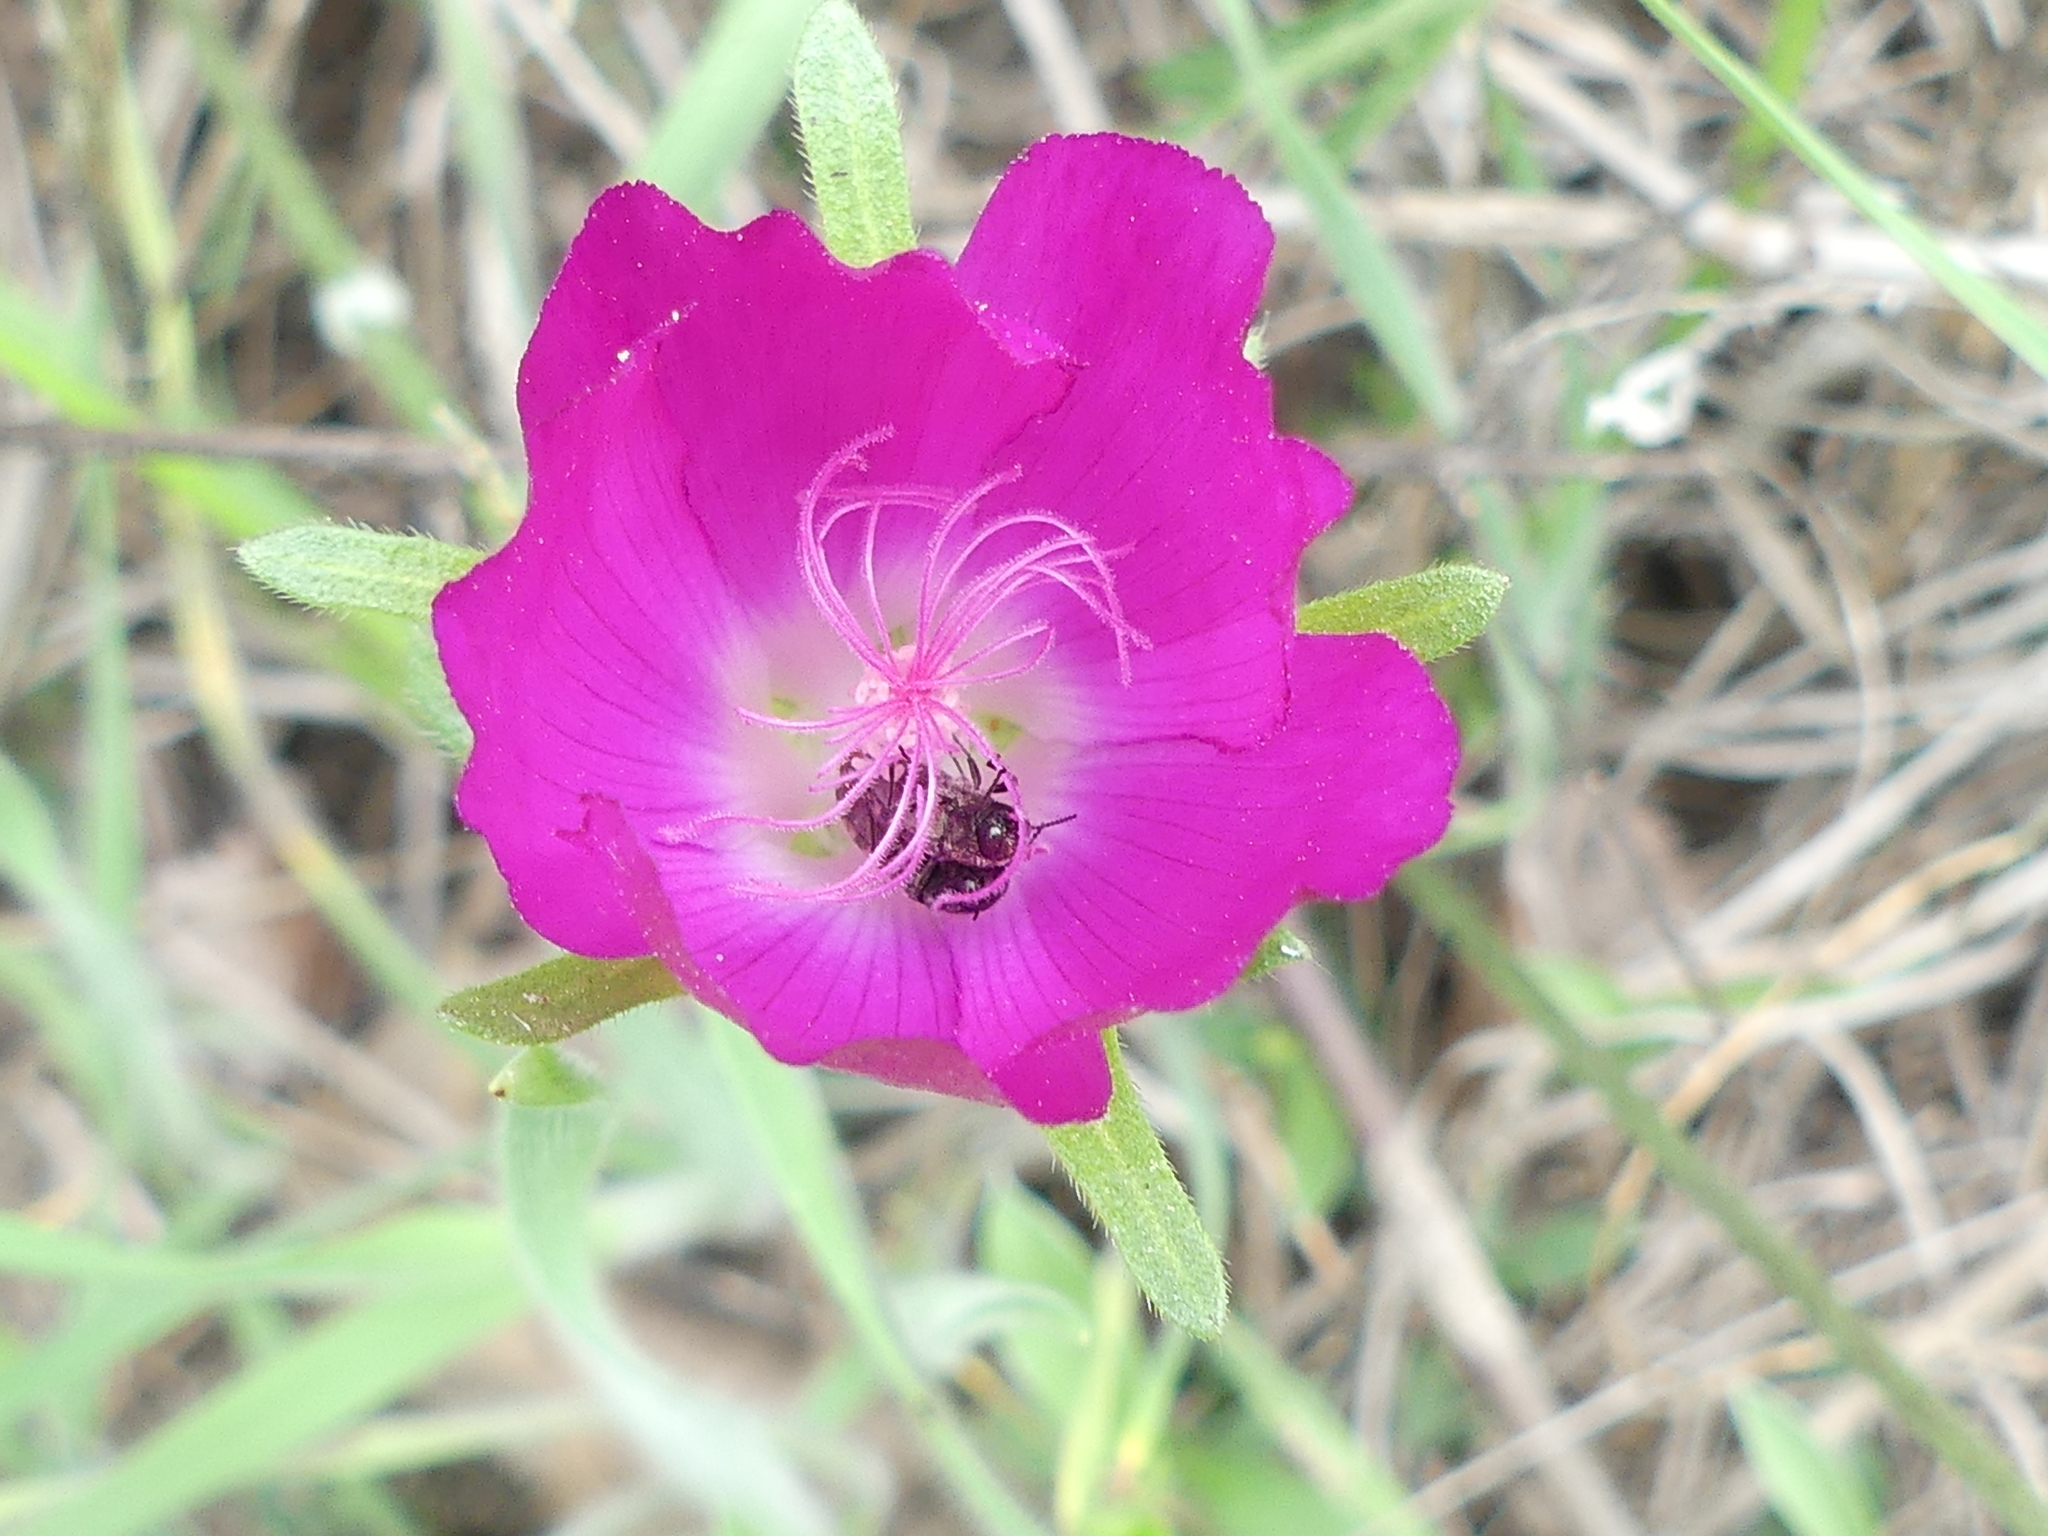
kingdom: Plantae
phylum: Tracheophyta
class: Magnoliopsida
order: Malvales
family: Malvaceae
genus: Callirhoe
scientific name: Callirhoe involucrata
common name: Purple poppy-mallow
